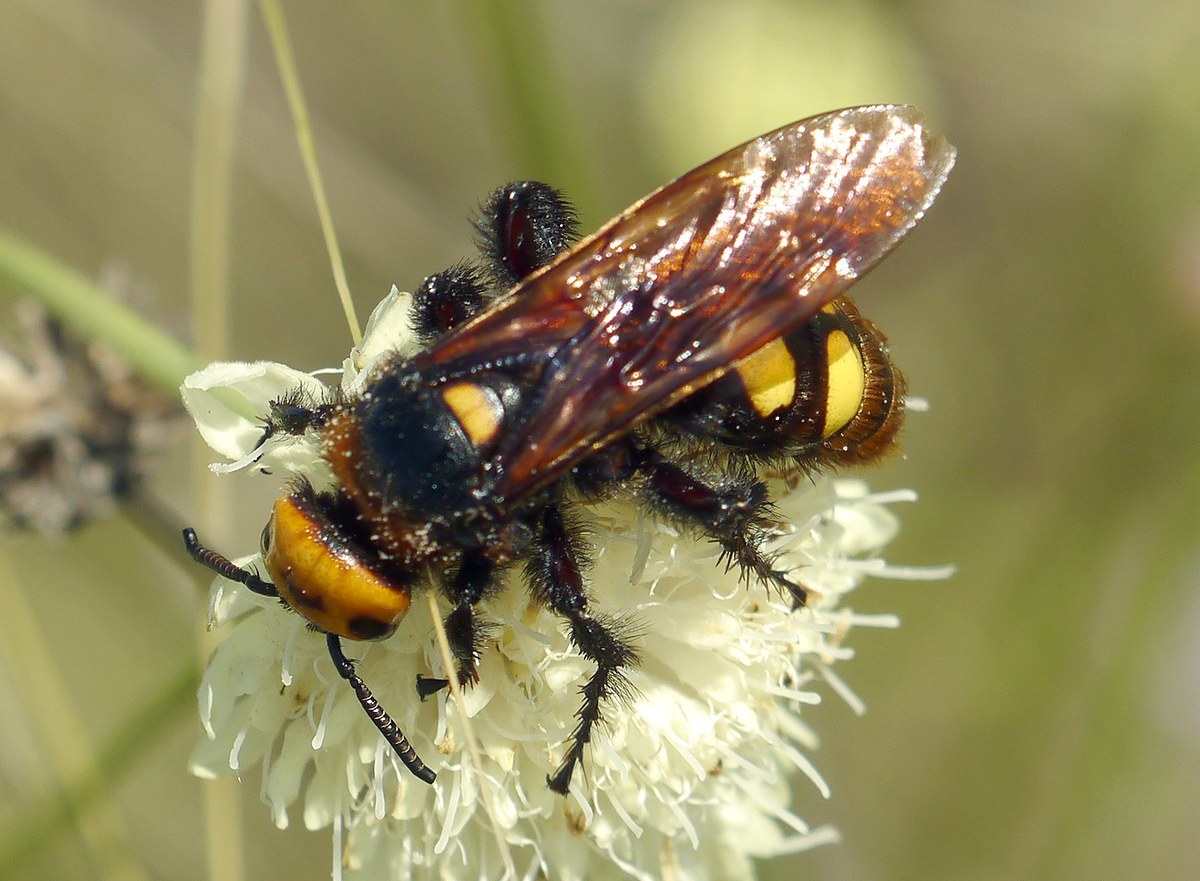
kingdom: Animalia
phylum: Arthropoda
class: Insecta
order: Hymenoptera
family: Scoliidae
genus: Megascolia
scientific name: Megascolia maculata
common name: Mammoth wasp
